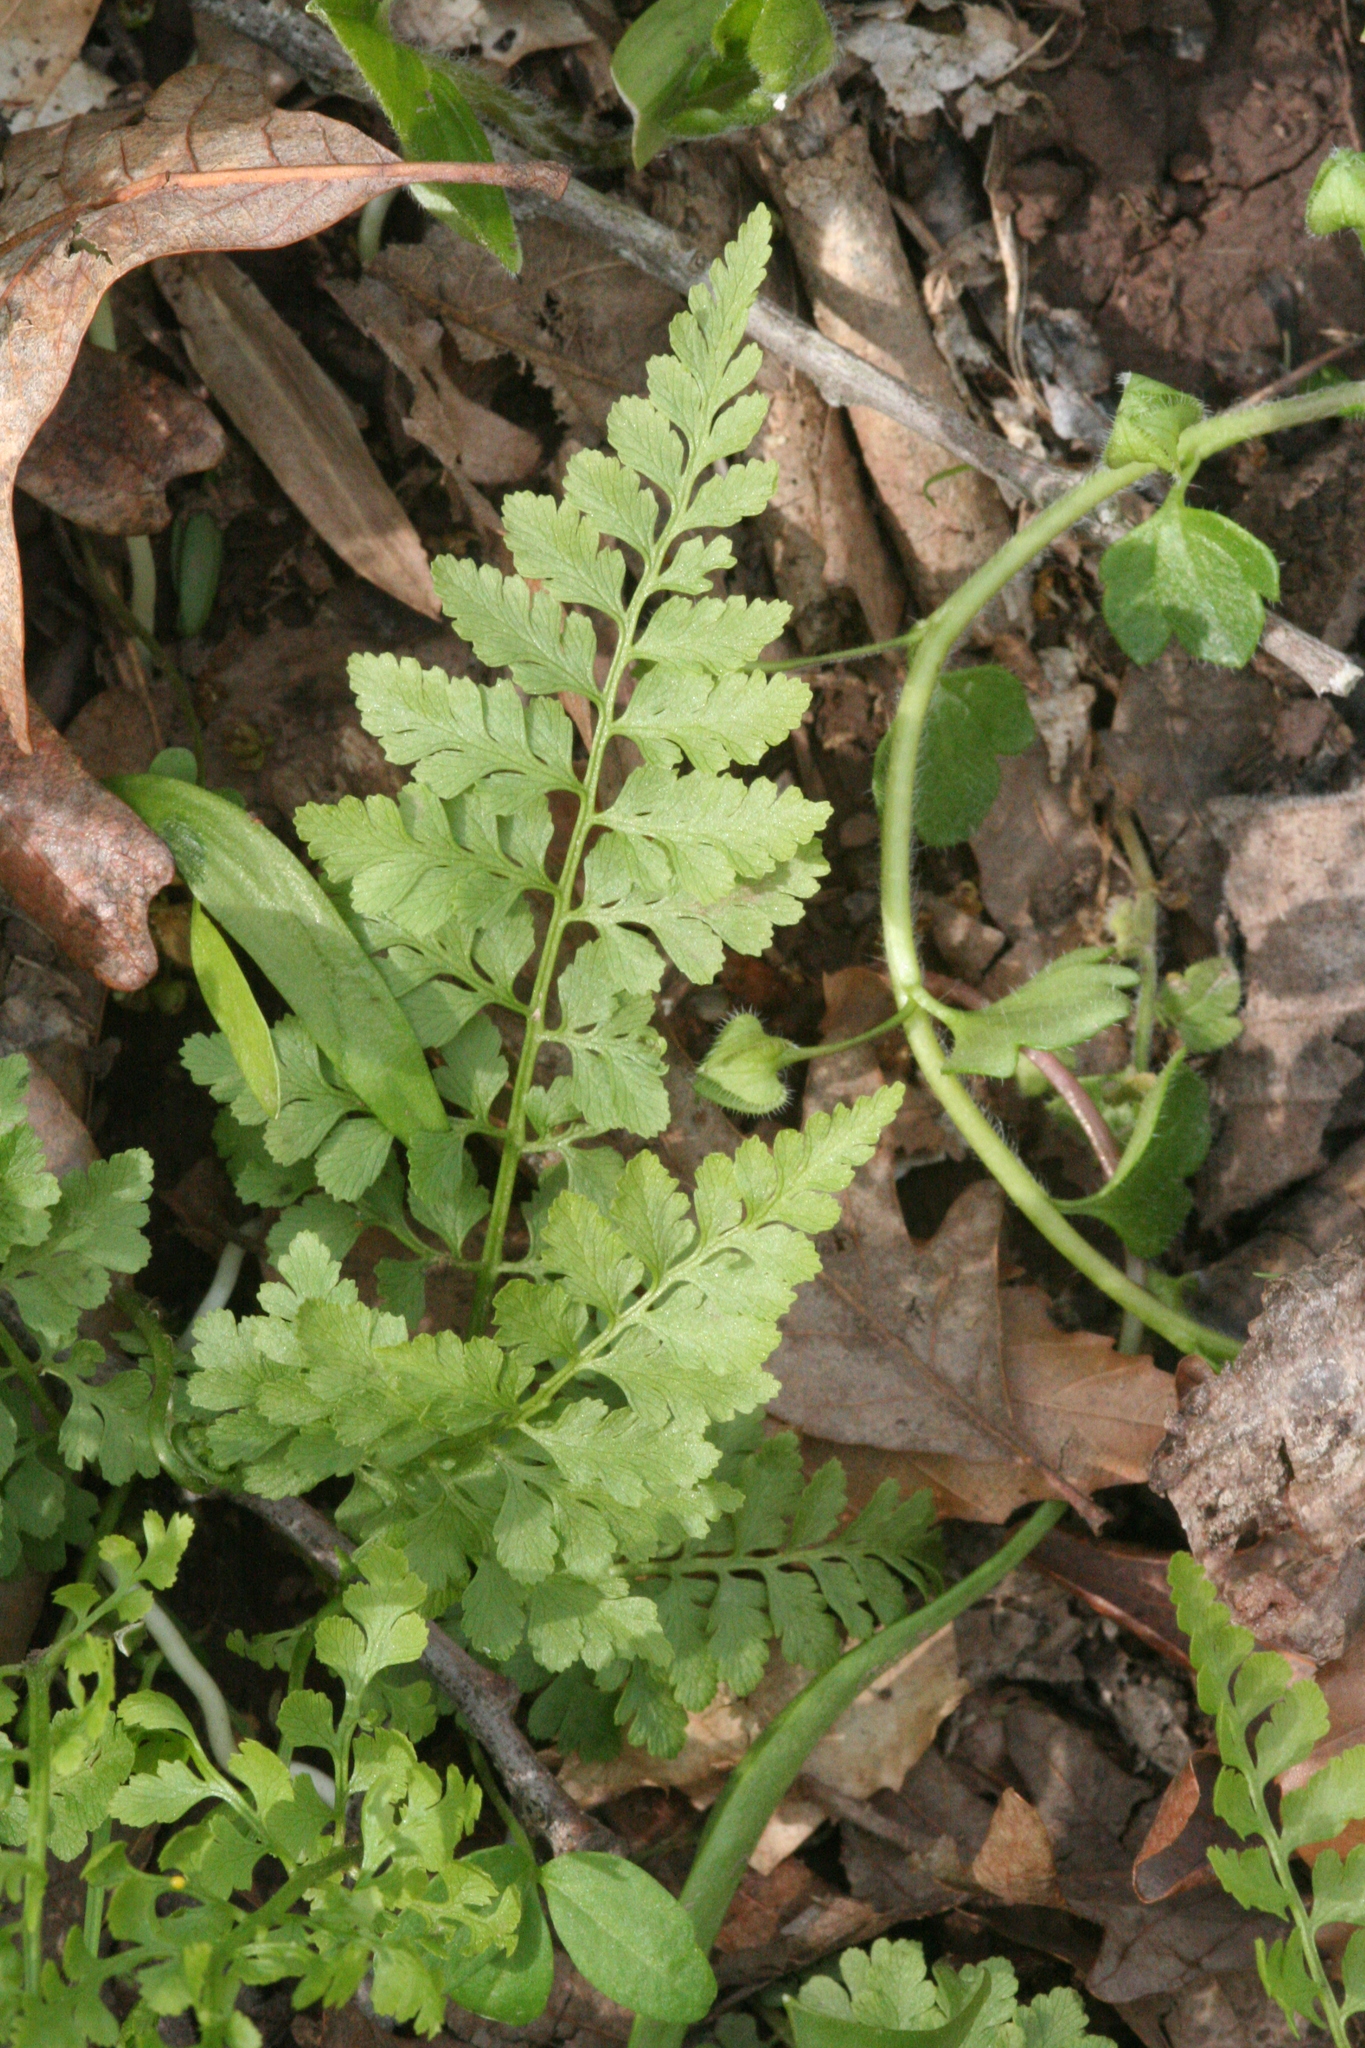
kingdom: Plantae
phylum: Tracheophyta
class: Polypodiopsida
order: Polypodiales
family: Cystopteridaceae
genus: Cystopteris
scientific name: Cystopteris protrusa
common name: Lowland brittle fern
